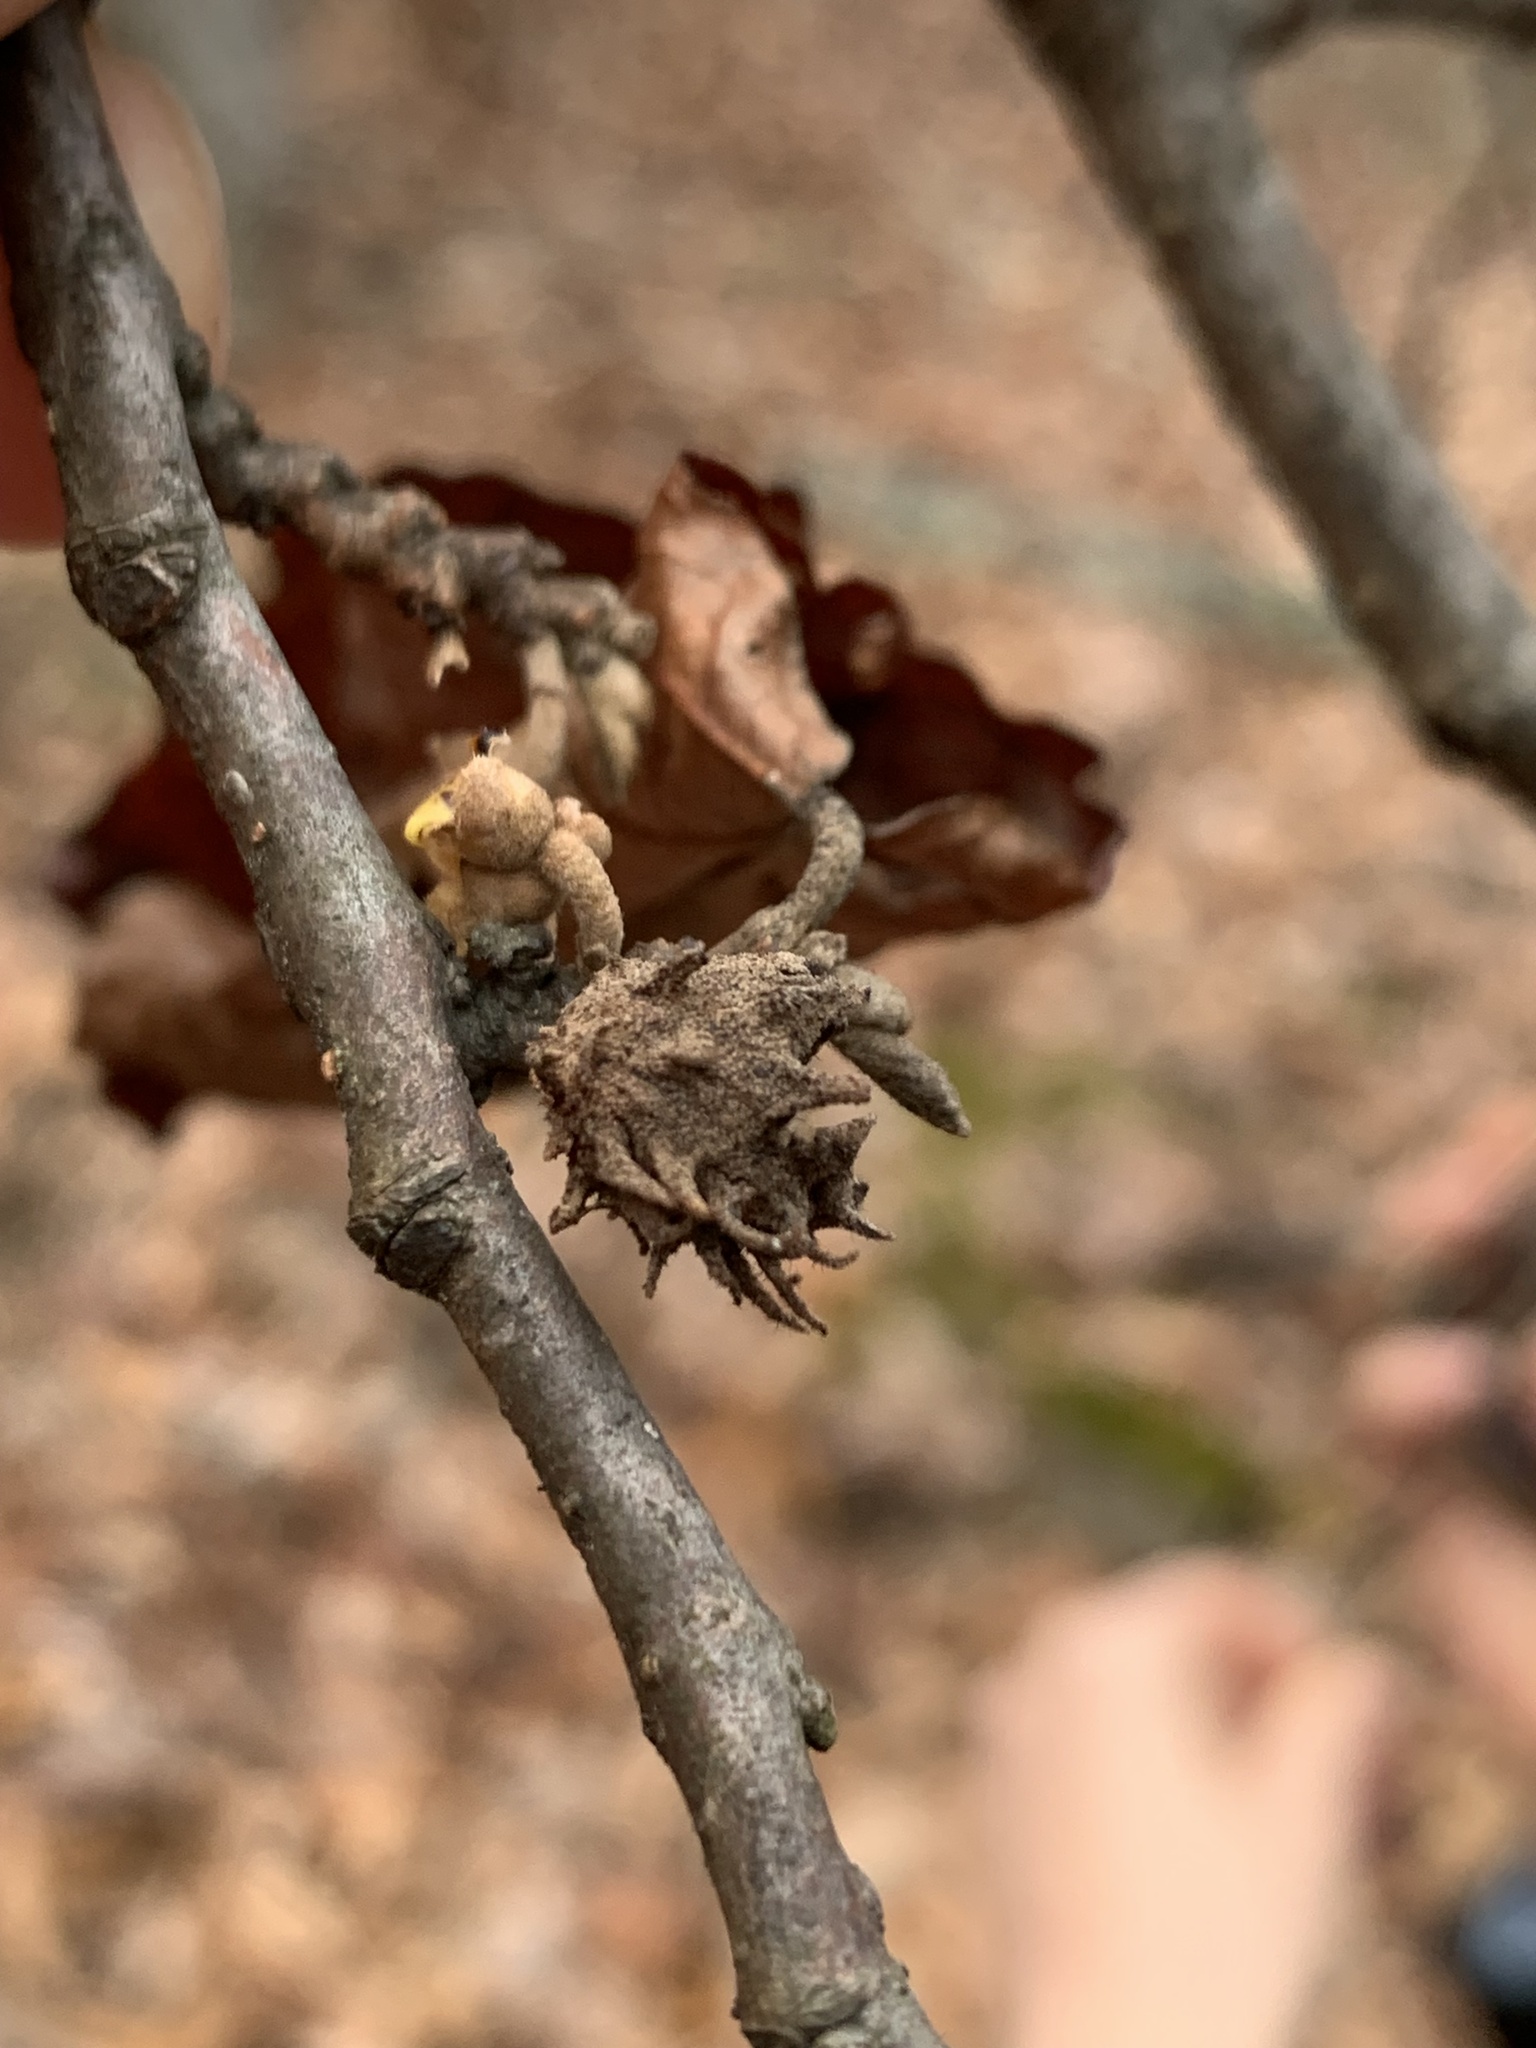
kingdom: Animalia
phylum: Arthropoda
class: Insecta
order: Hemiptera
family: Aphididae
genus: Hamamelistes
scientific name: Hamamelistes spinosus
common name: Witch hazel gall aphid
